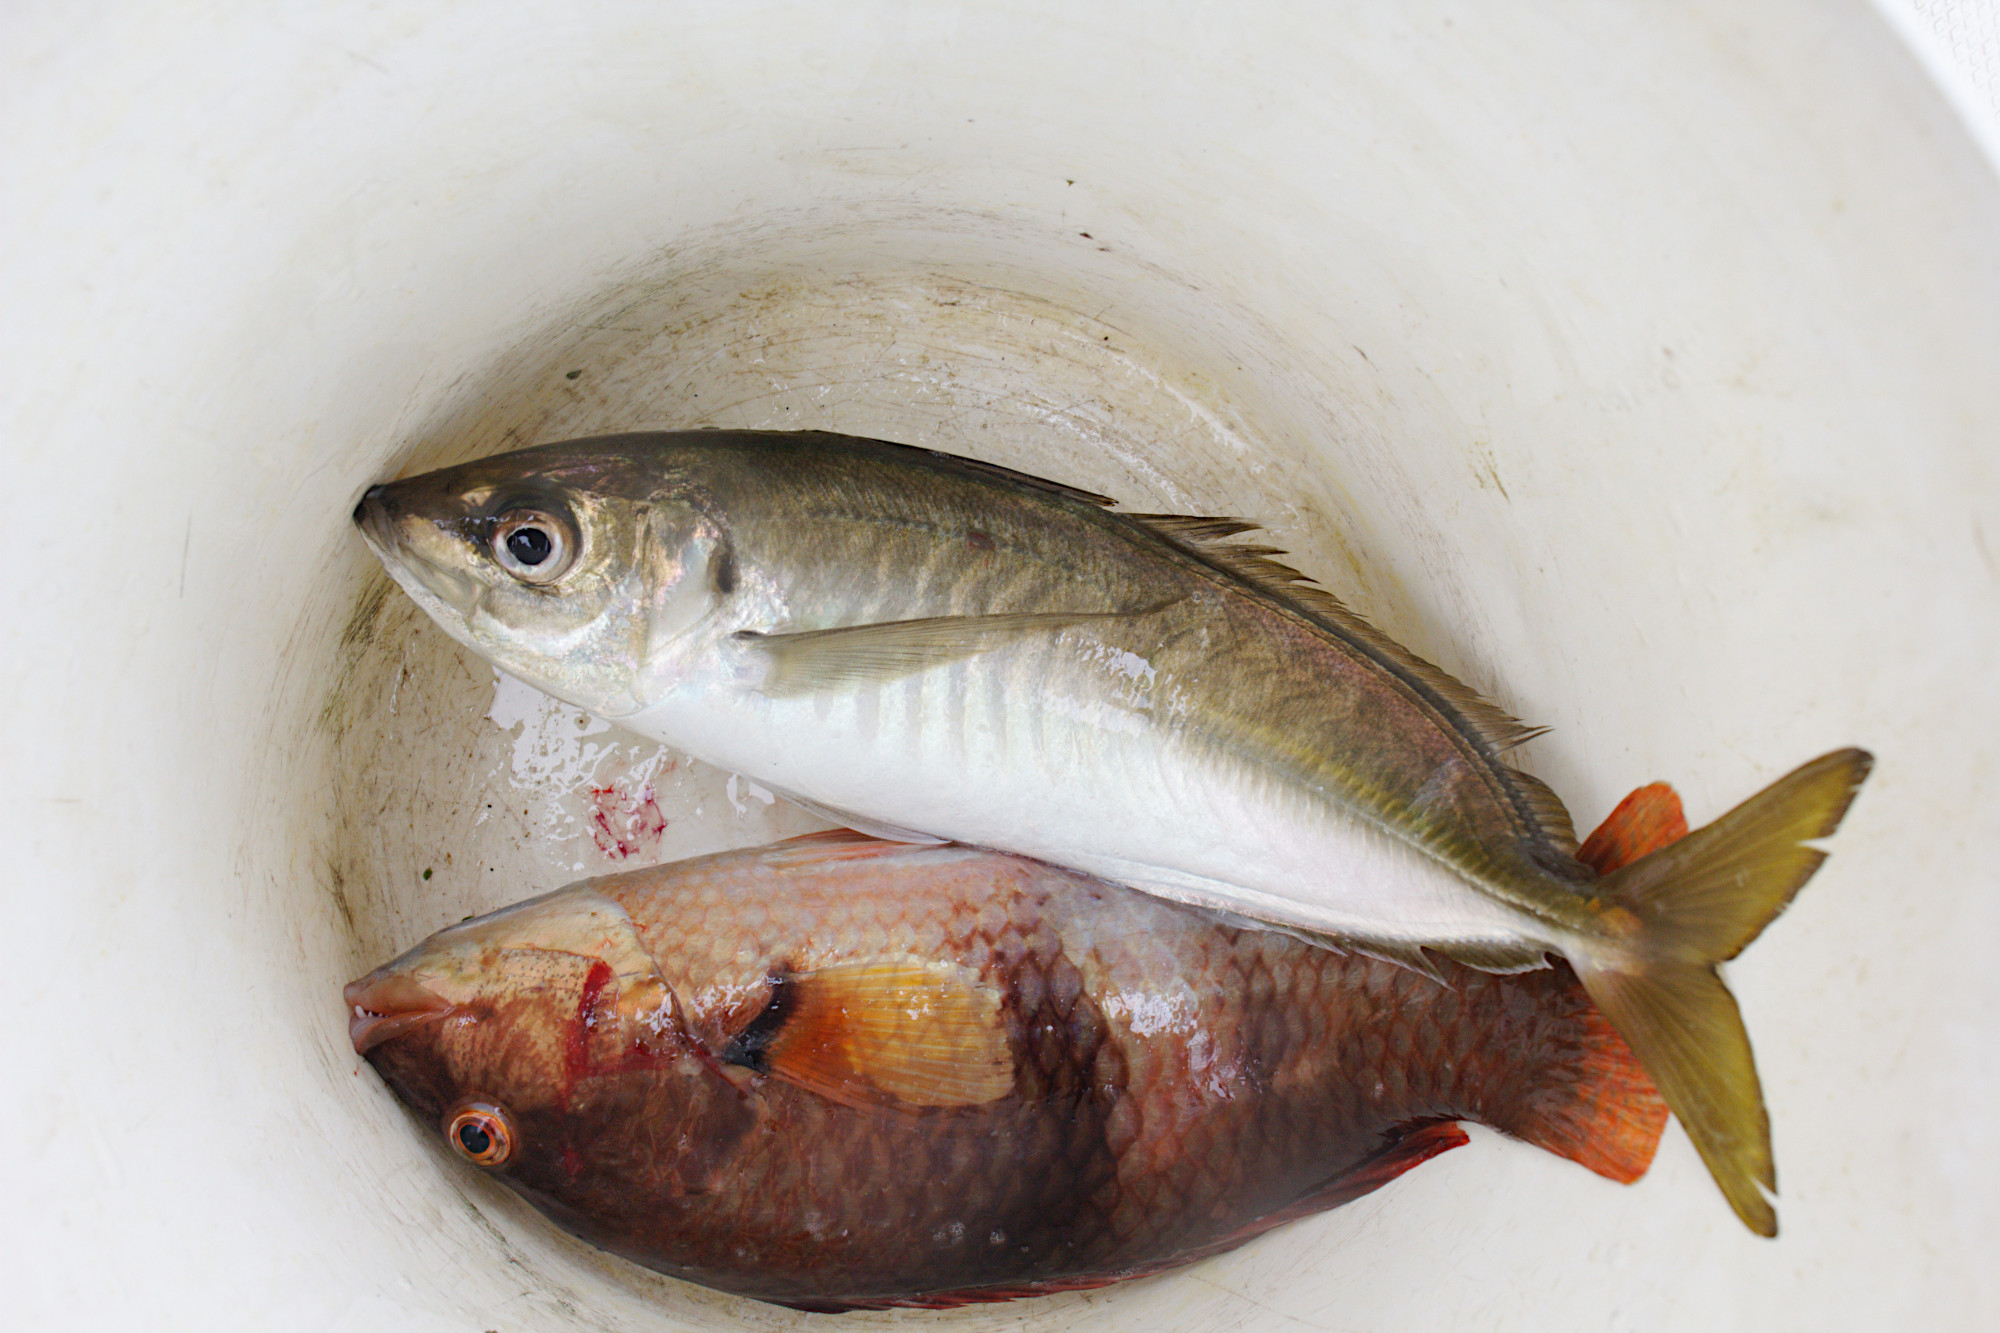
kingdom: Animalia
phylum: Chordata
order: Perciformes
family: Carangidae
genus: Trachurus
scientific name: Trachurus novaezelandiae
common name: Yellowtail horse mackerel
